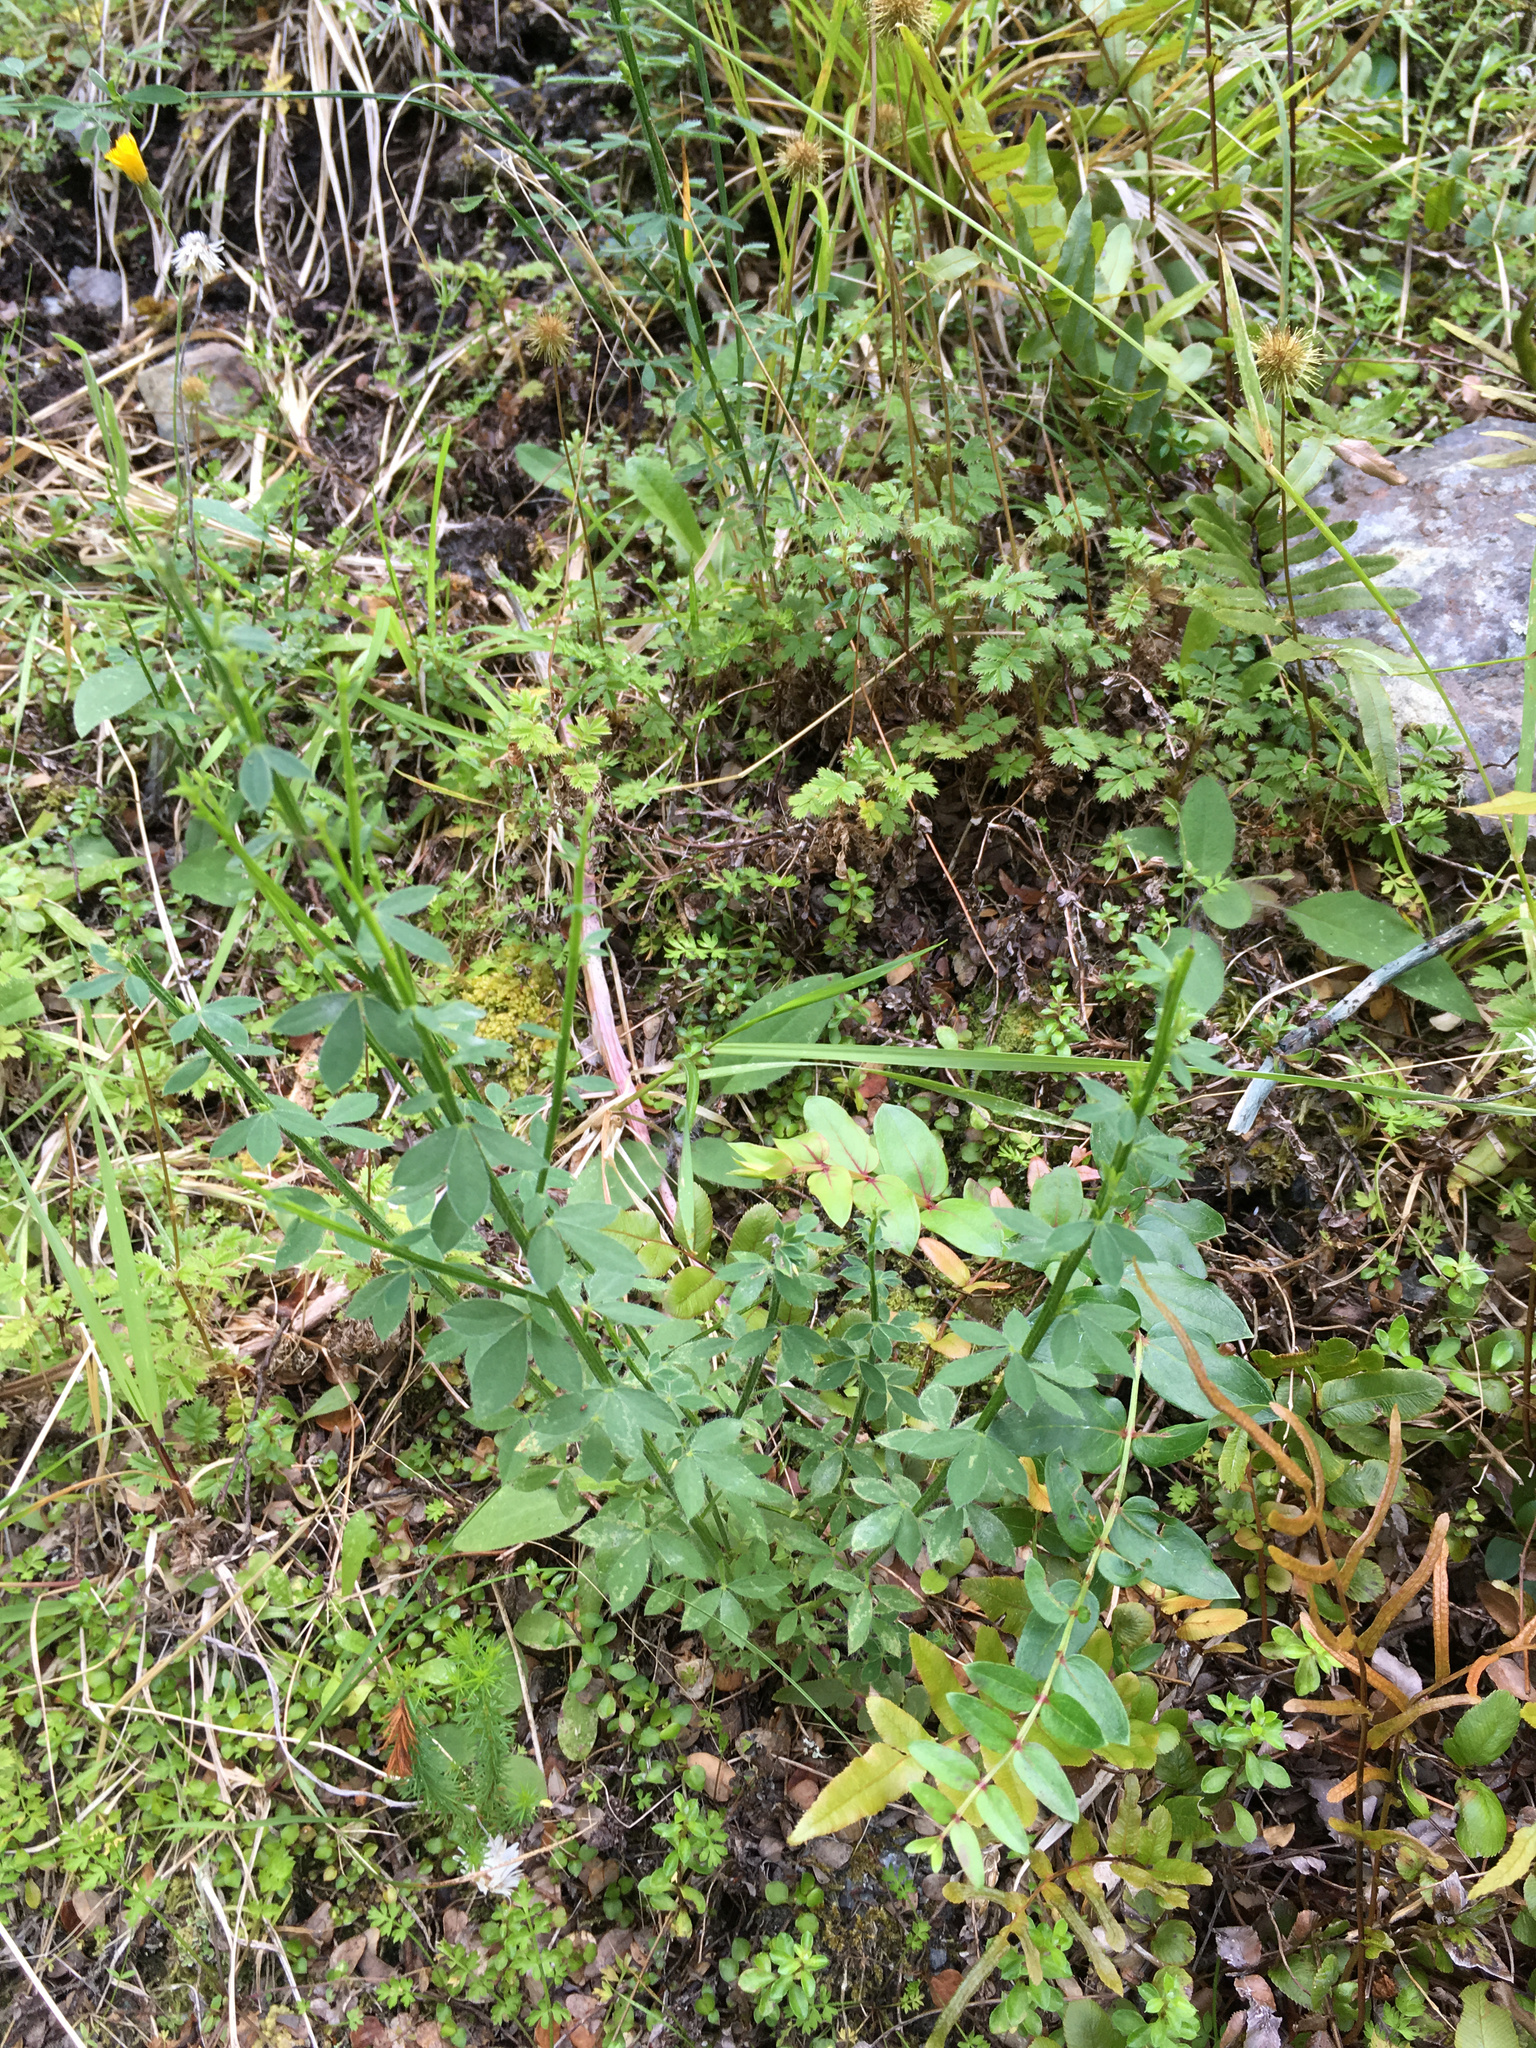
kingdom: Plantae
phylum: Tracheophyta
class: Magnoliopsida
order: Fabales
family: Fabaceae
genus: Cytisus
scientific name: Cytisus scoparius
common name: Scotch broom
